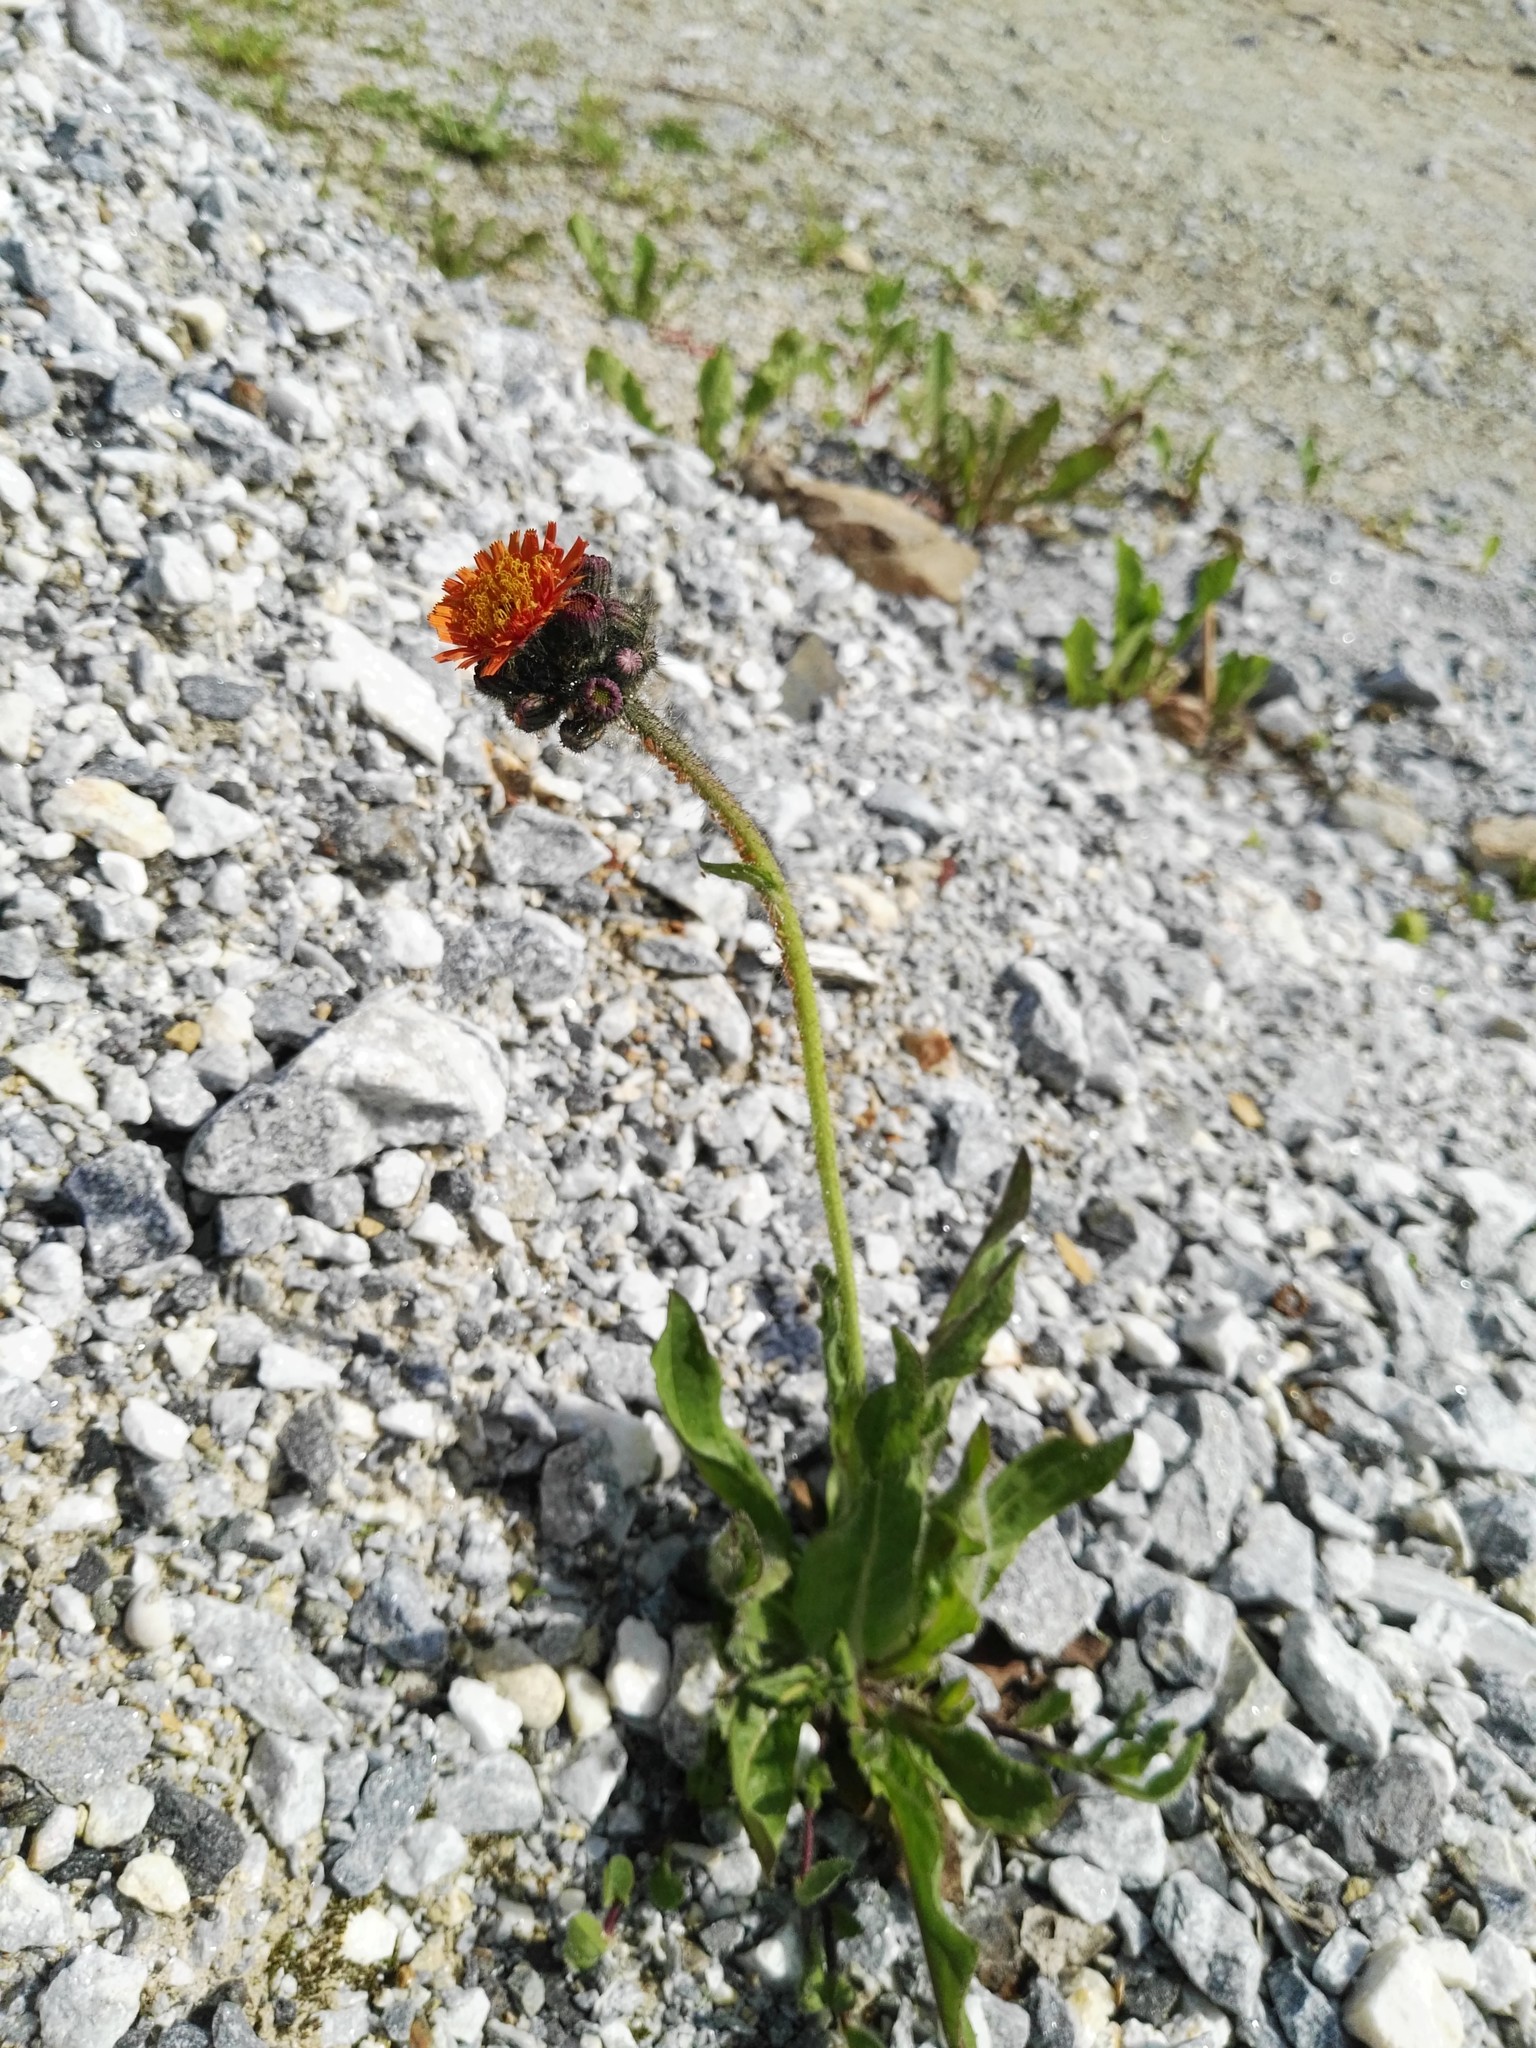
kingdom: Plantae
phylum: Tracheophyta
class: Magnoliopsida
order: Asterales
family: Asteraceae
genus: Pilosella
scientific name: Pilosella aurantiaca
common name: Fox-and-cubs
